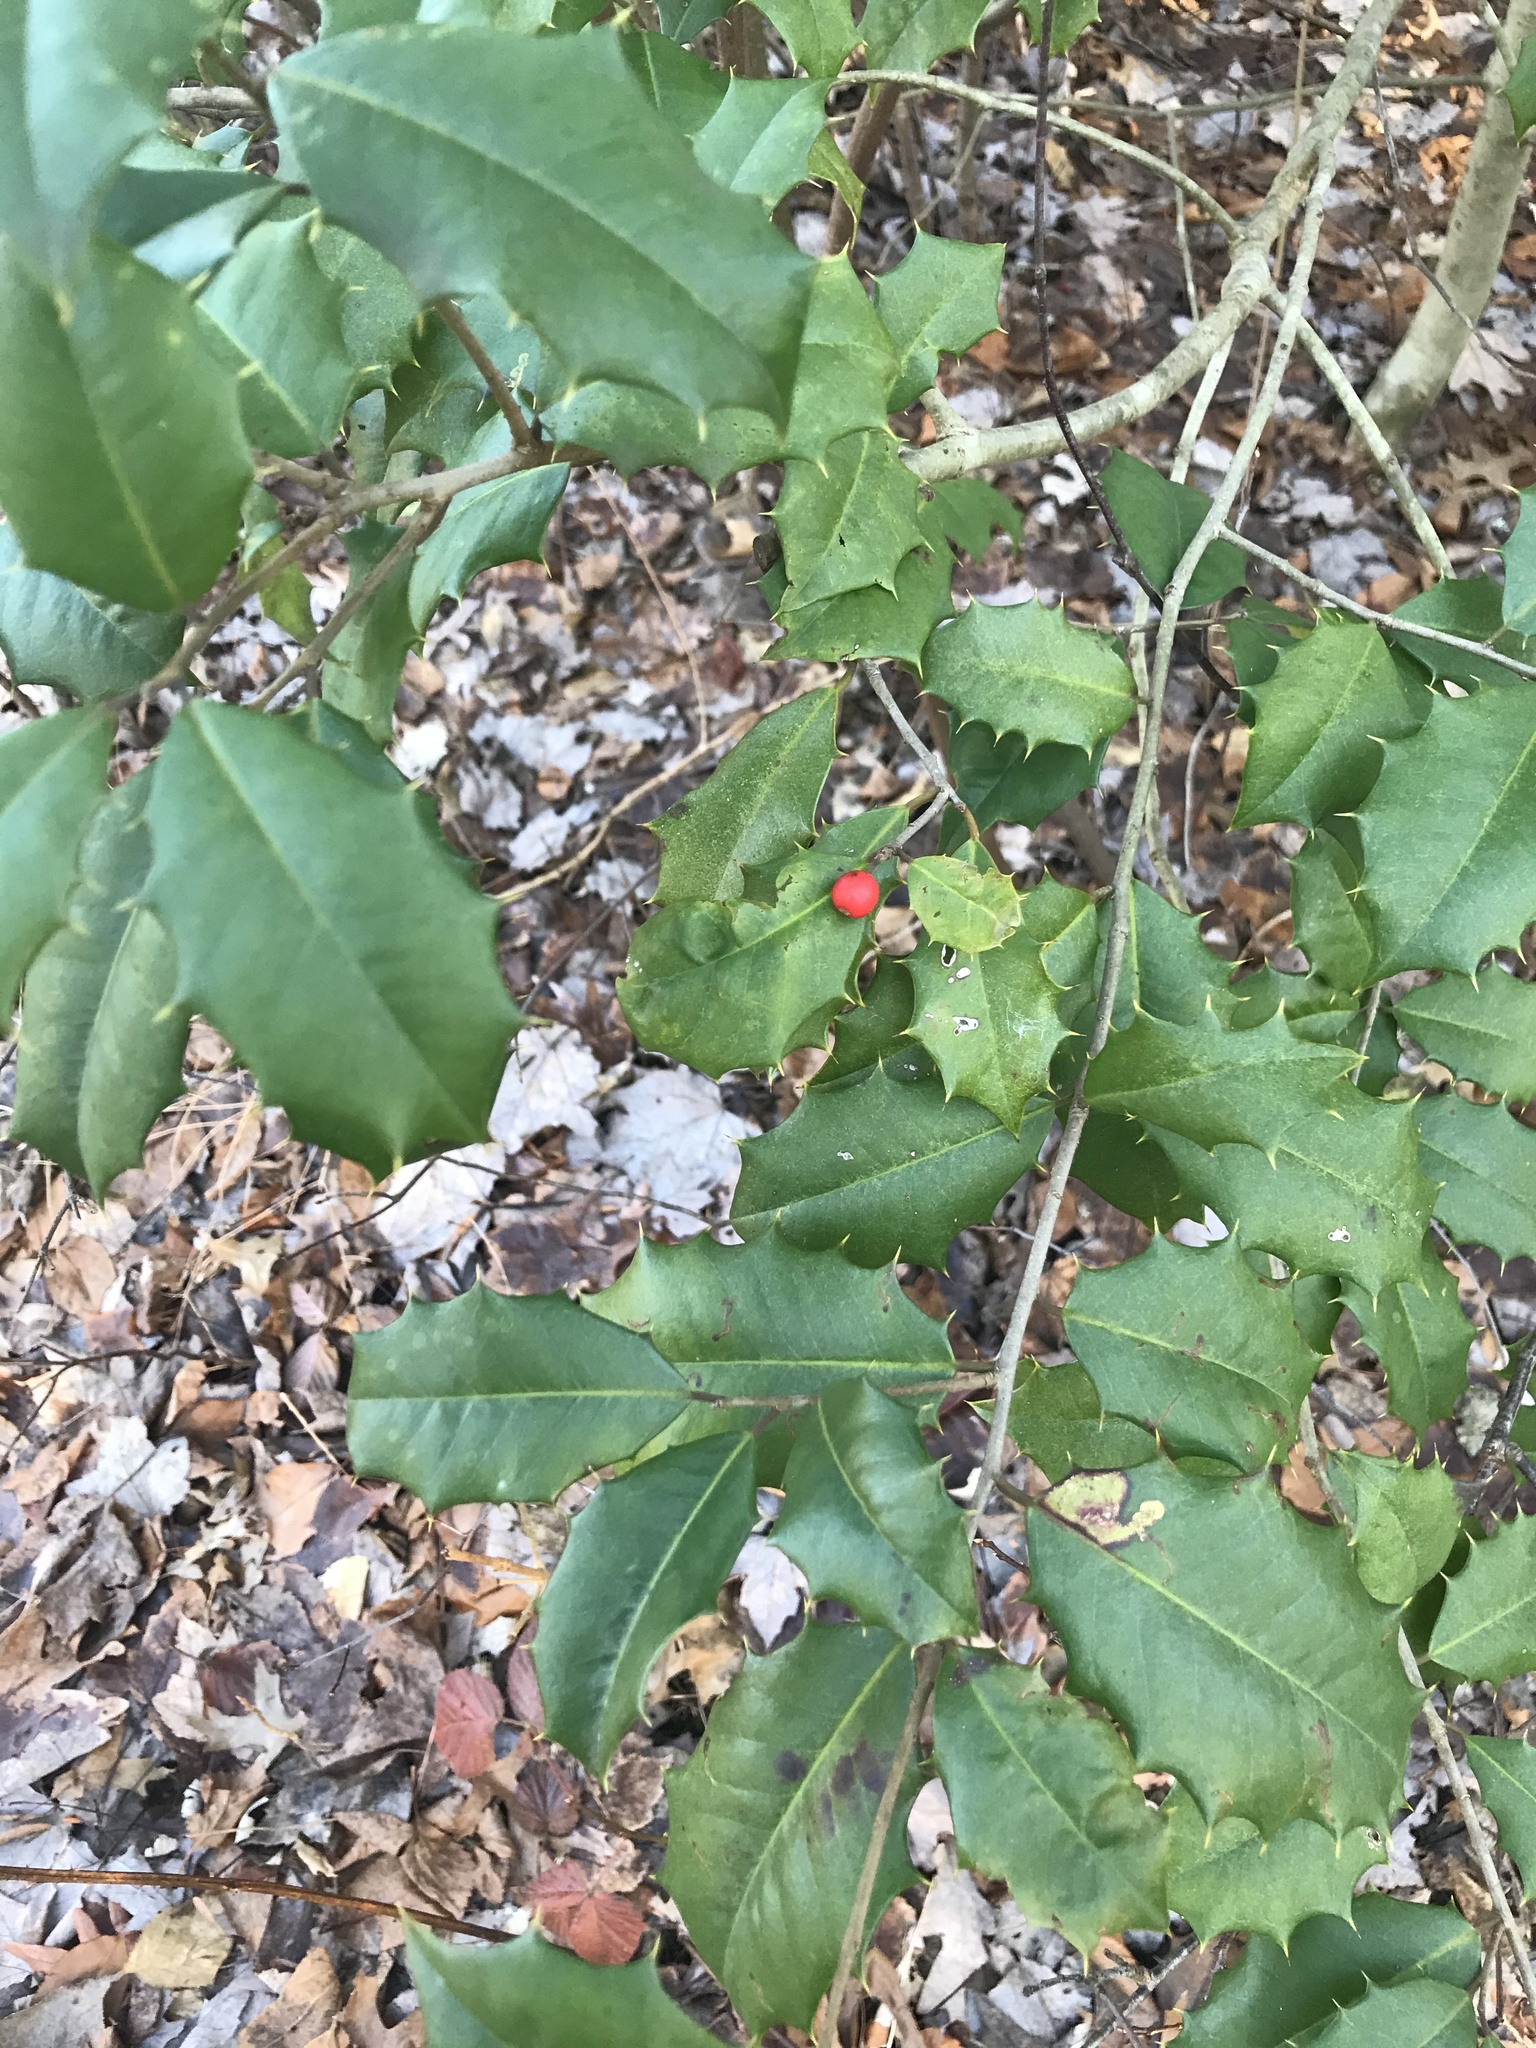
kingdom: Plantae
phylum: Tracheophyta
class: Magnoliopsida
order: Aquifoliales
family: Aquifoliaceae
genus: Ilex
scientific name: Ilex opaca
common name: American holly
